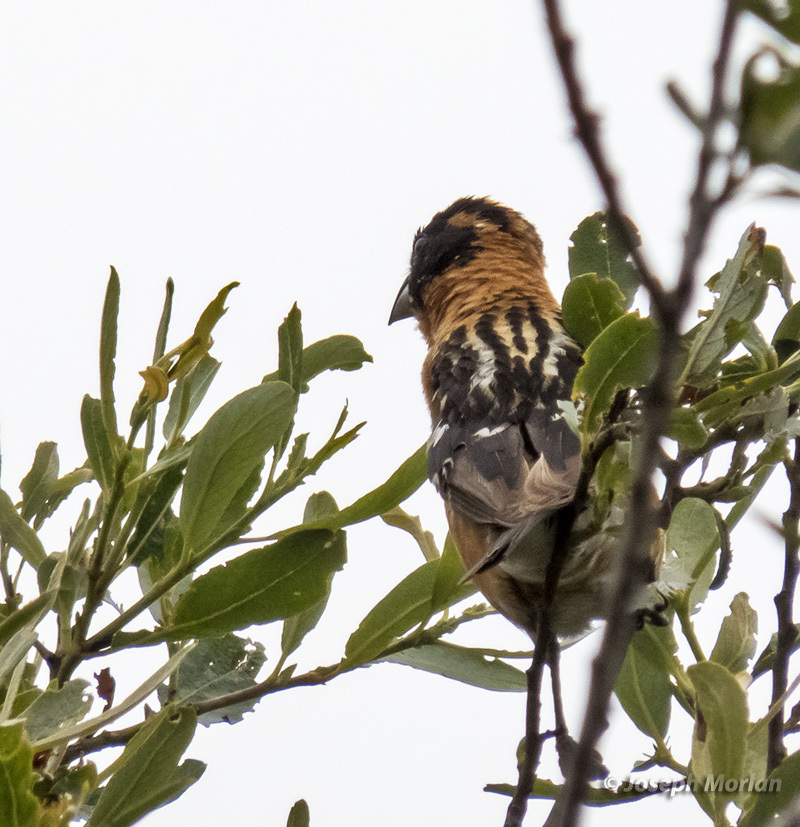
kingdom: Animalia
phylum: Chordata
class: Aves
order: Passeriformes
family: Cardinalidae
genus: Pheucticus
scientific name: Pheucticus melanocephalus
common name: Black-headed grosbeak
